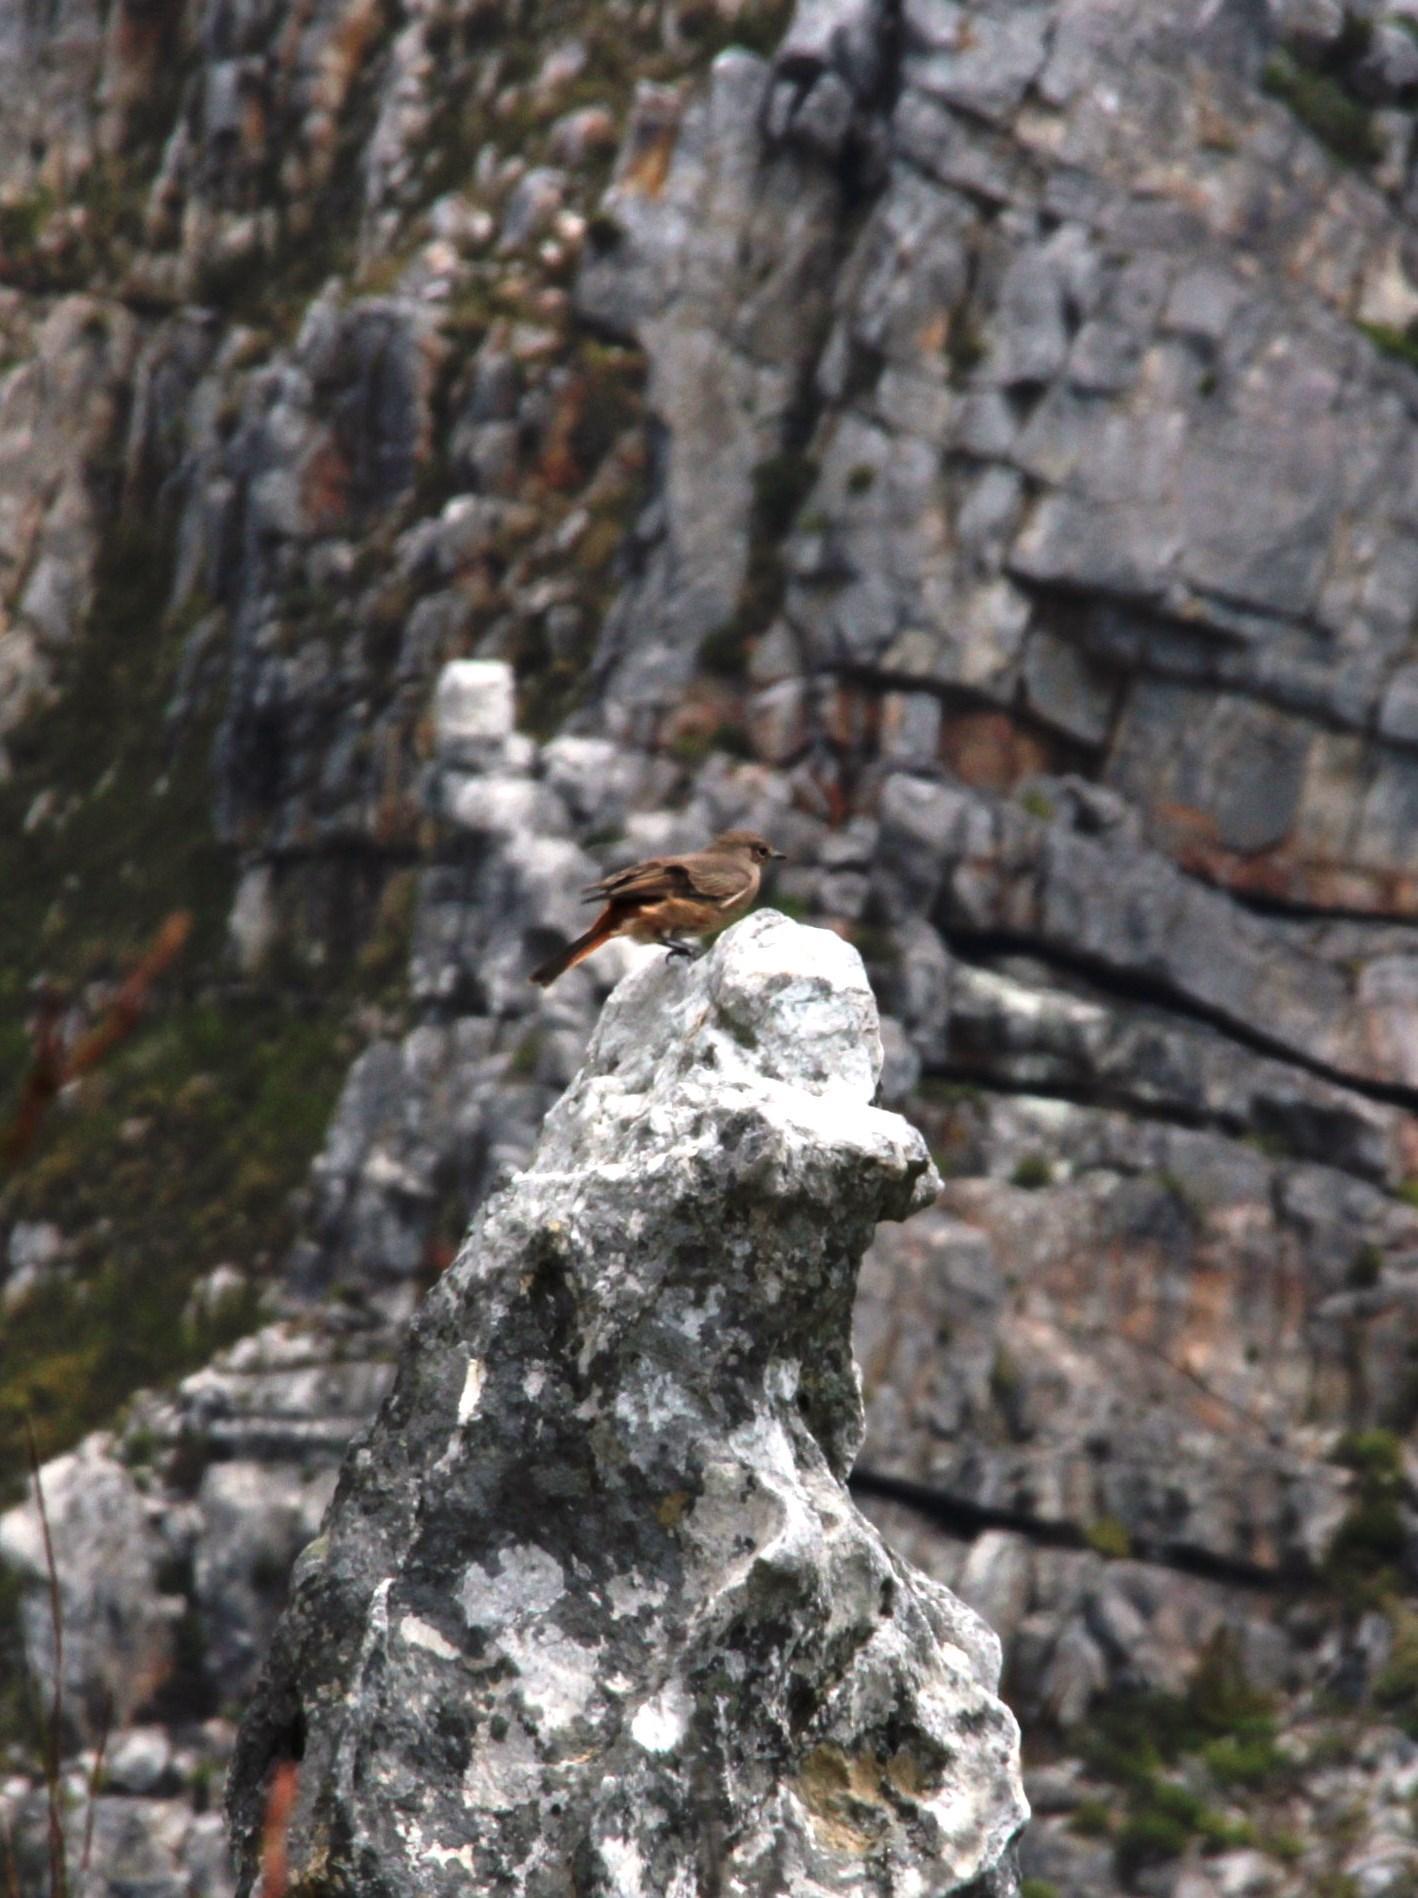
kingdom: Animalia
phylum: Chordata
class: Aves
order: Passeriformes
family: Muscicapidae
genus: Oenanthe
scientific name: Oenanthe familiaris
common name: Familiar chat
